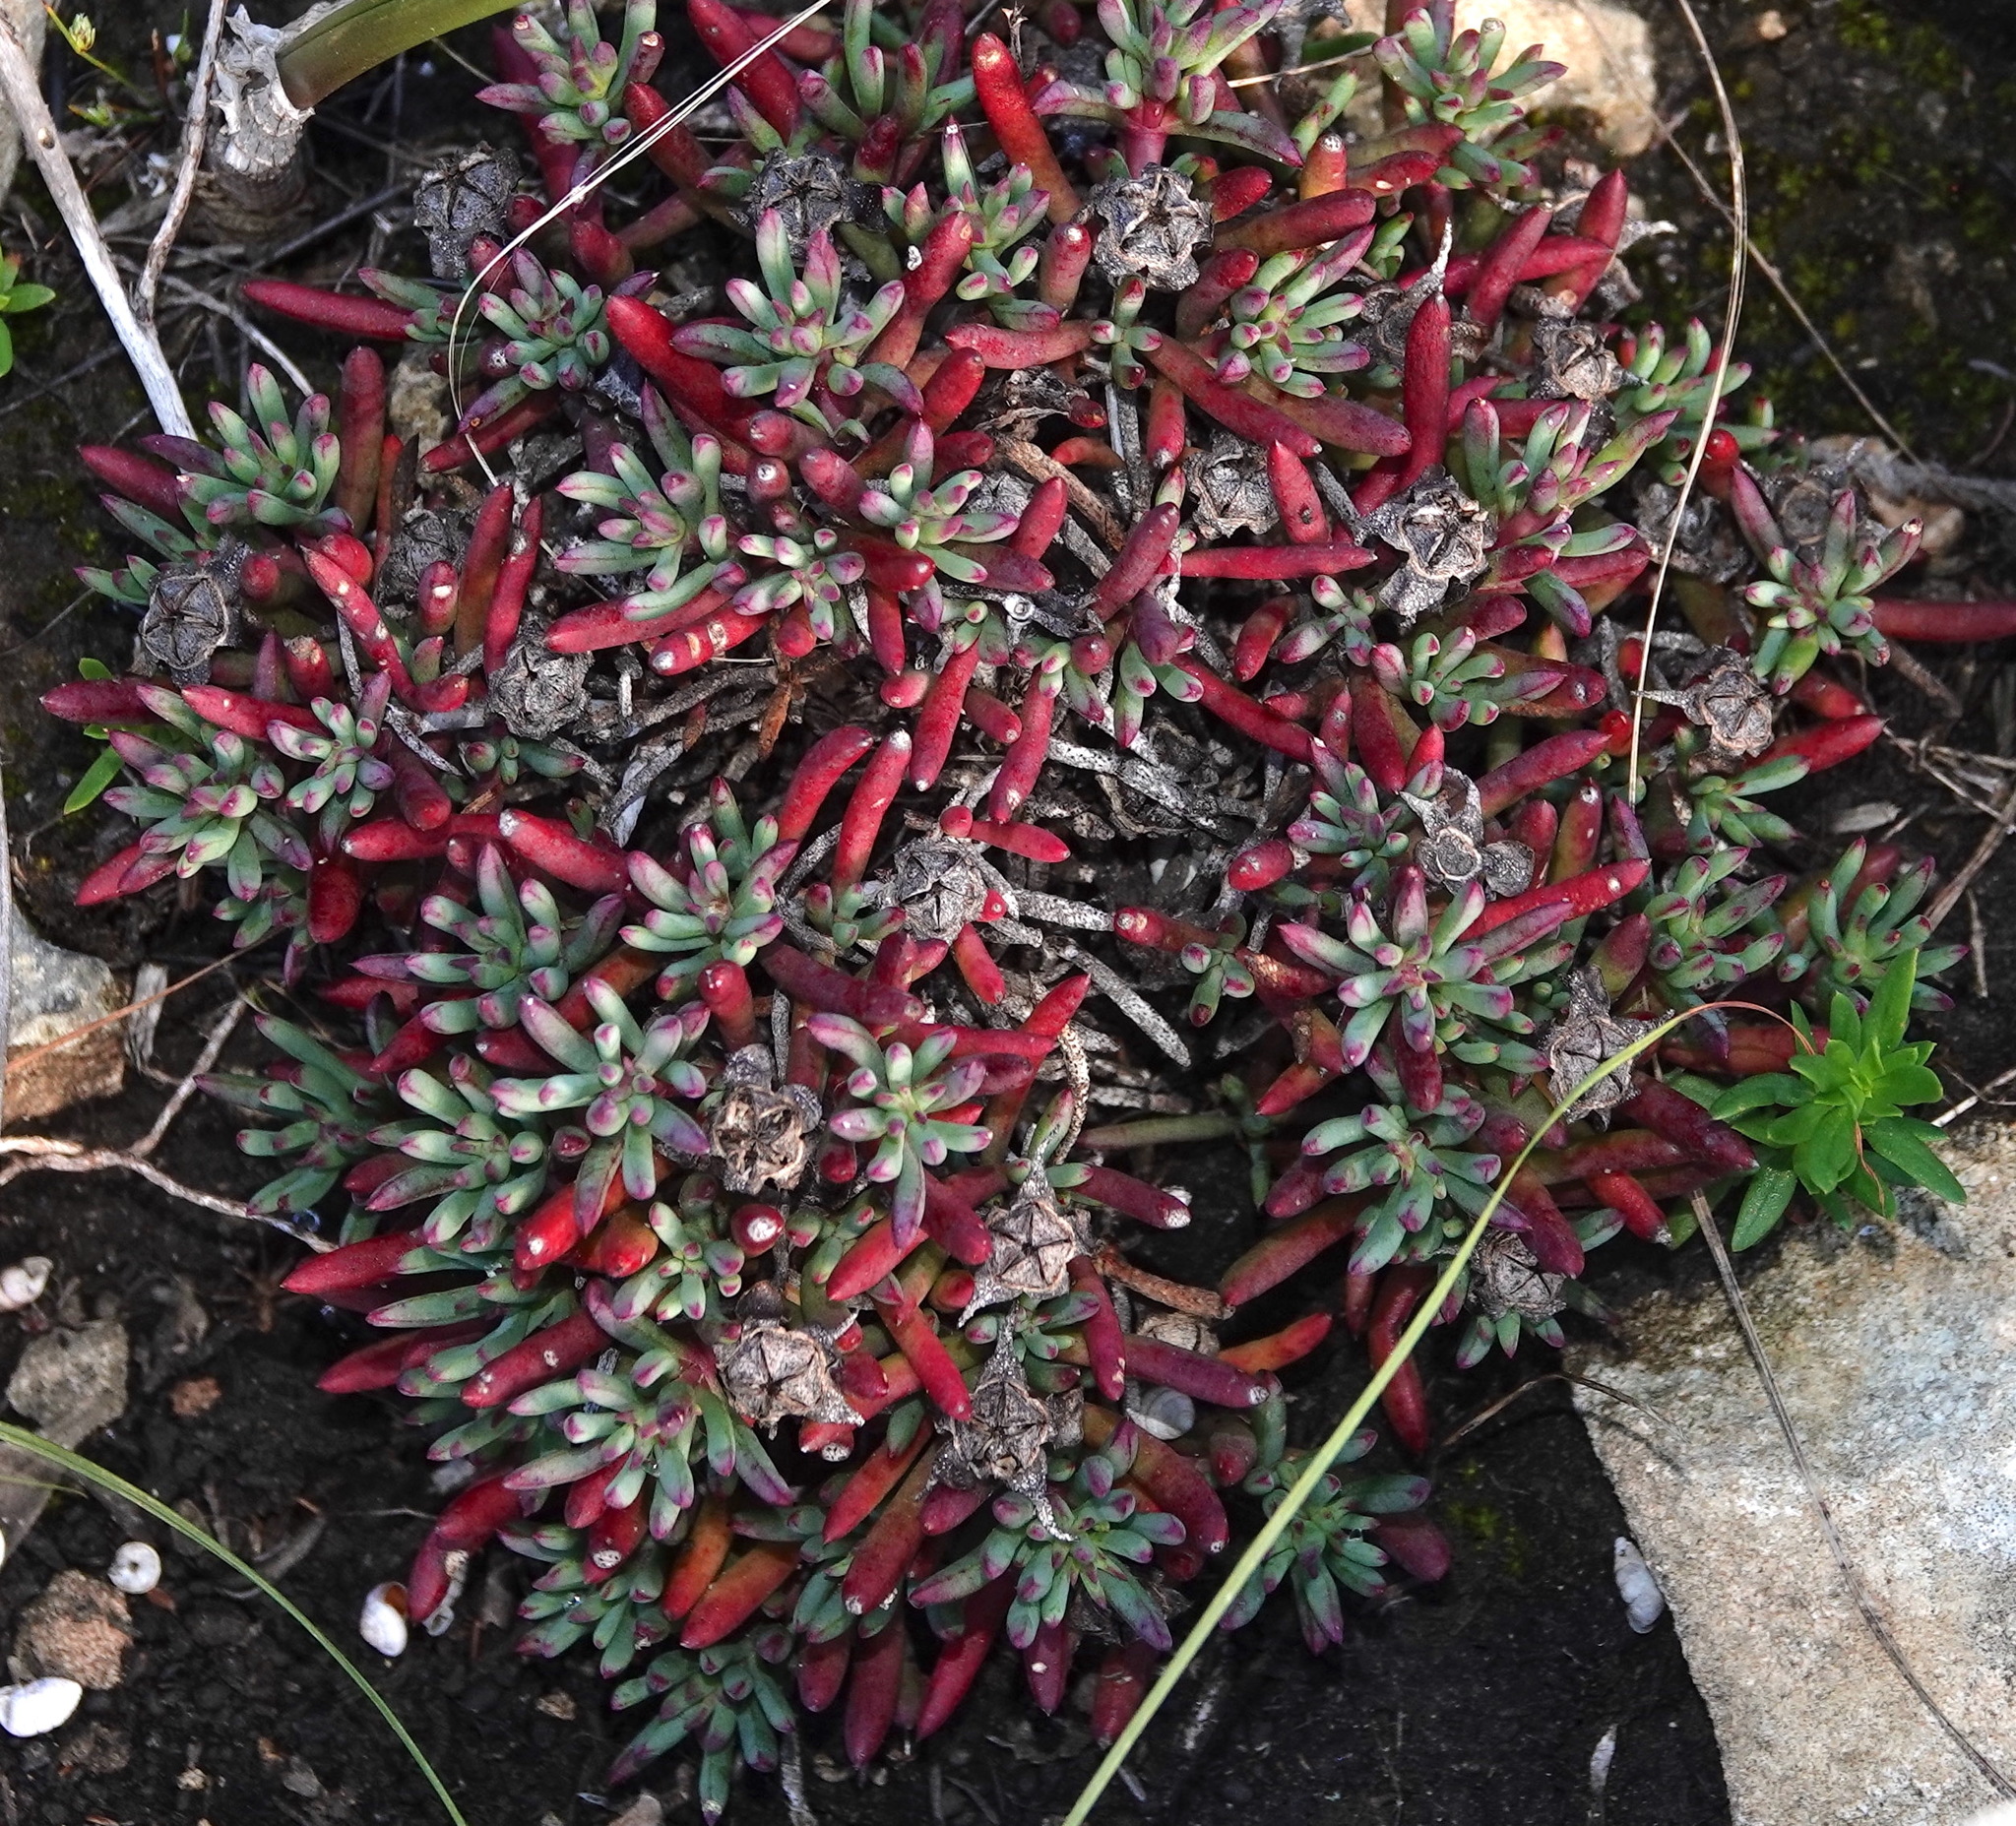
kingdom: Plantae
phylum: Tracheophyta
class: Magnoliopsida
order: Caryophyllales
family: Aizoaceae
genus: Lampranthus
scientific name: Lampranthus ceriseus
